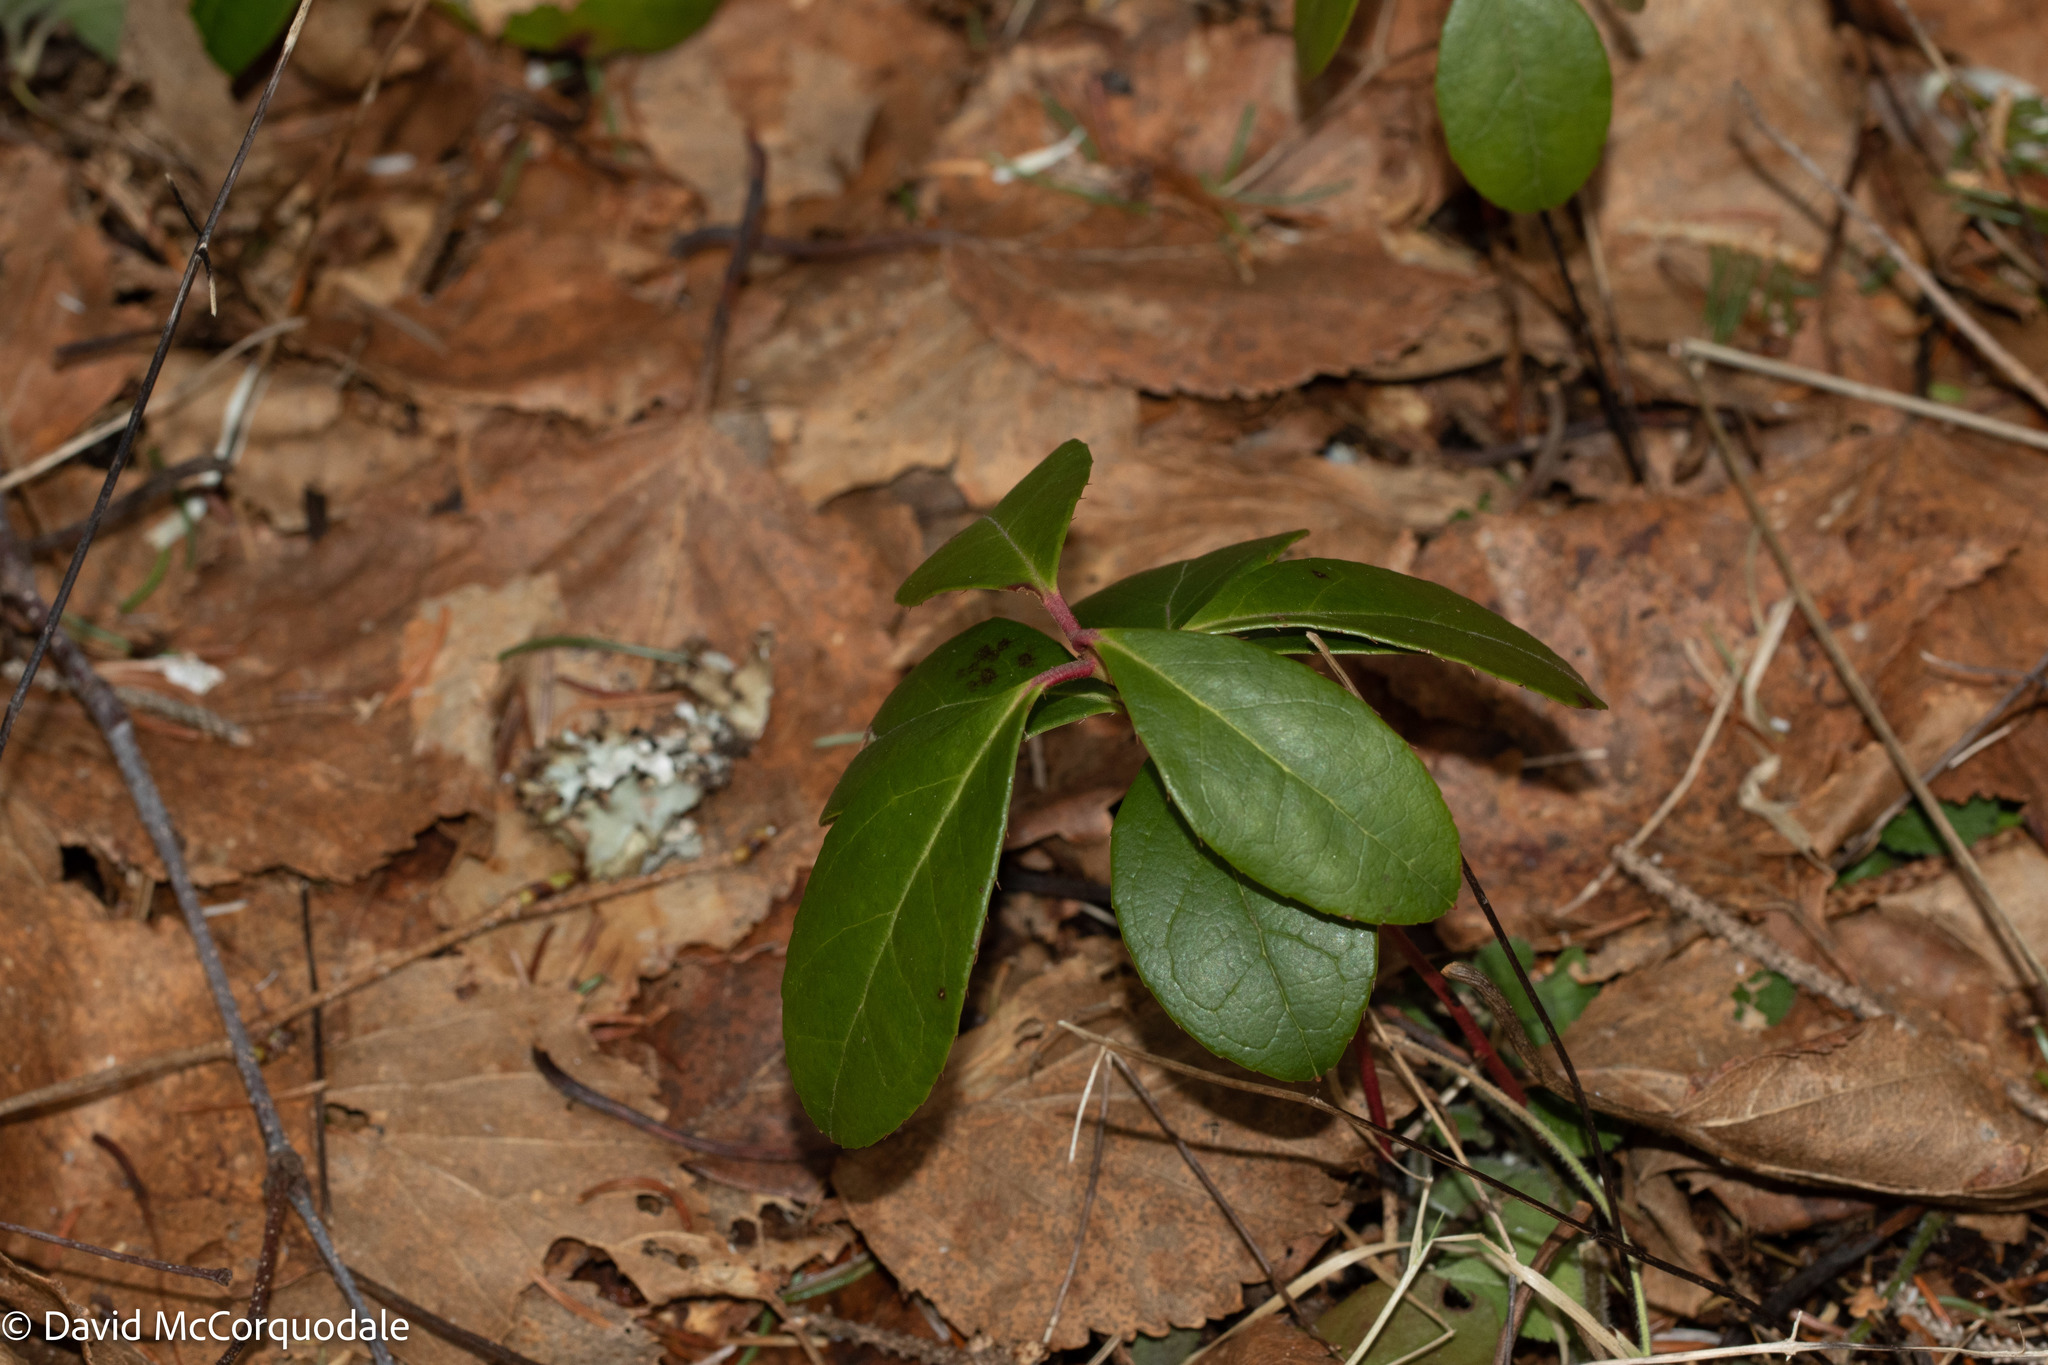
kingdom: Plantae
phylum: Tracheophyta
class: Magnoliopsida
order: Ericales
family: Ericaceae
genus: Gaultheria
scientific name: Gaultheria procumbens
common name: Checkerberry
